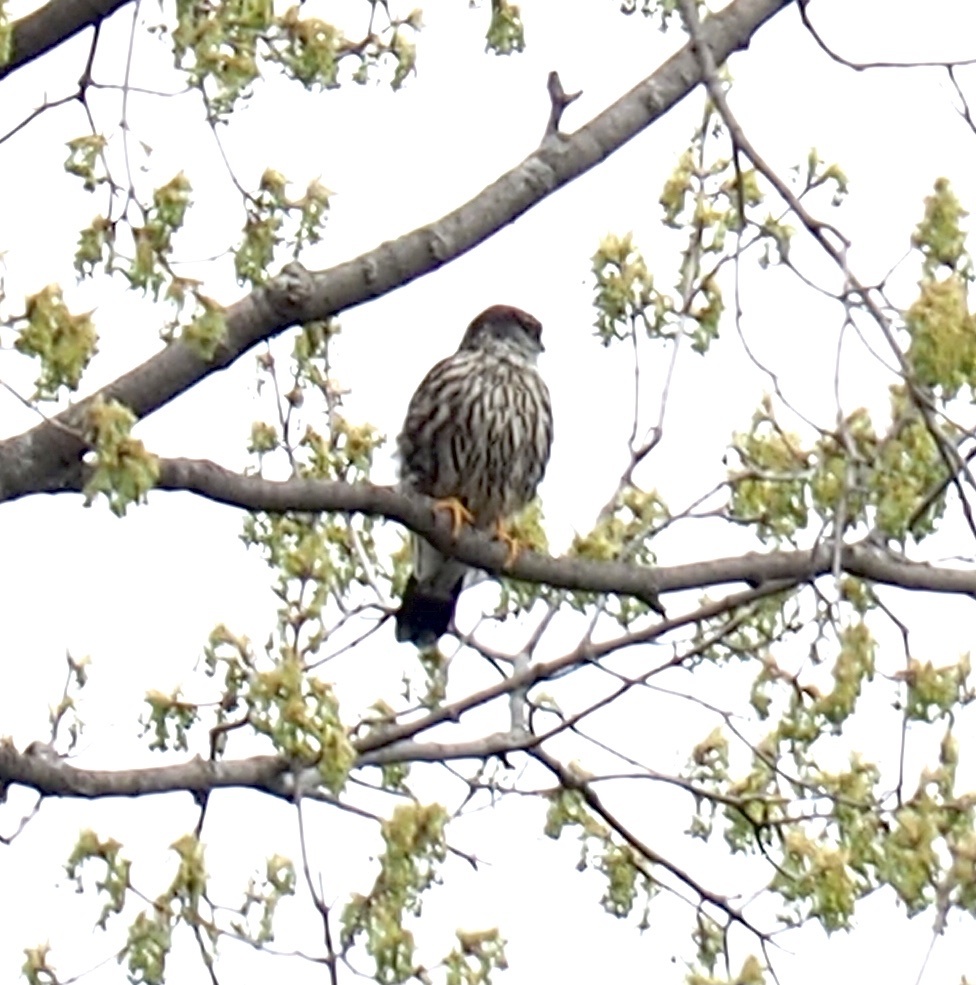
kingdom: Animalia
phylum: Chordata
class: Aves
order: Falconiformes
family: Falconidae
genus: Falco
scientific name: Falco columbarius
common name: Merlin
